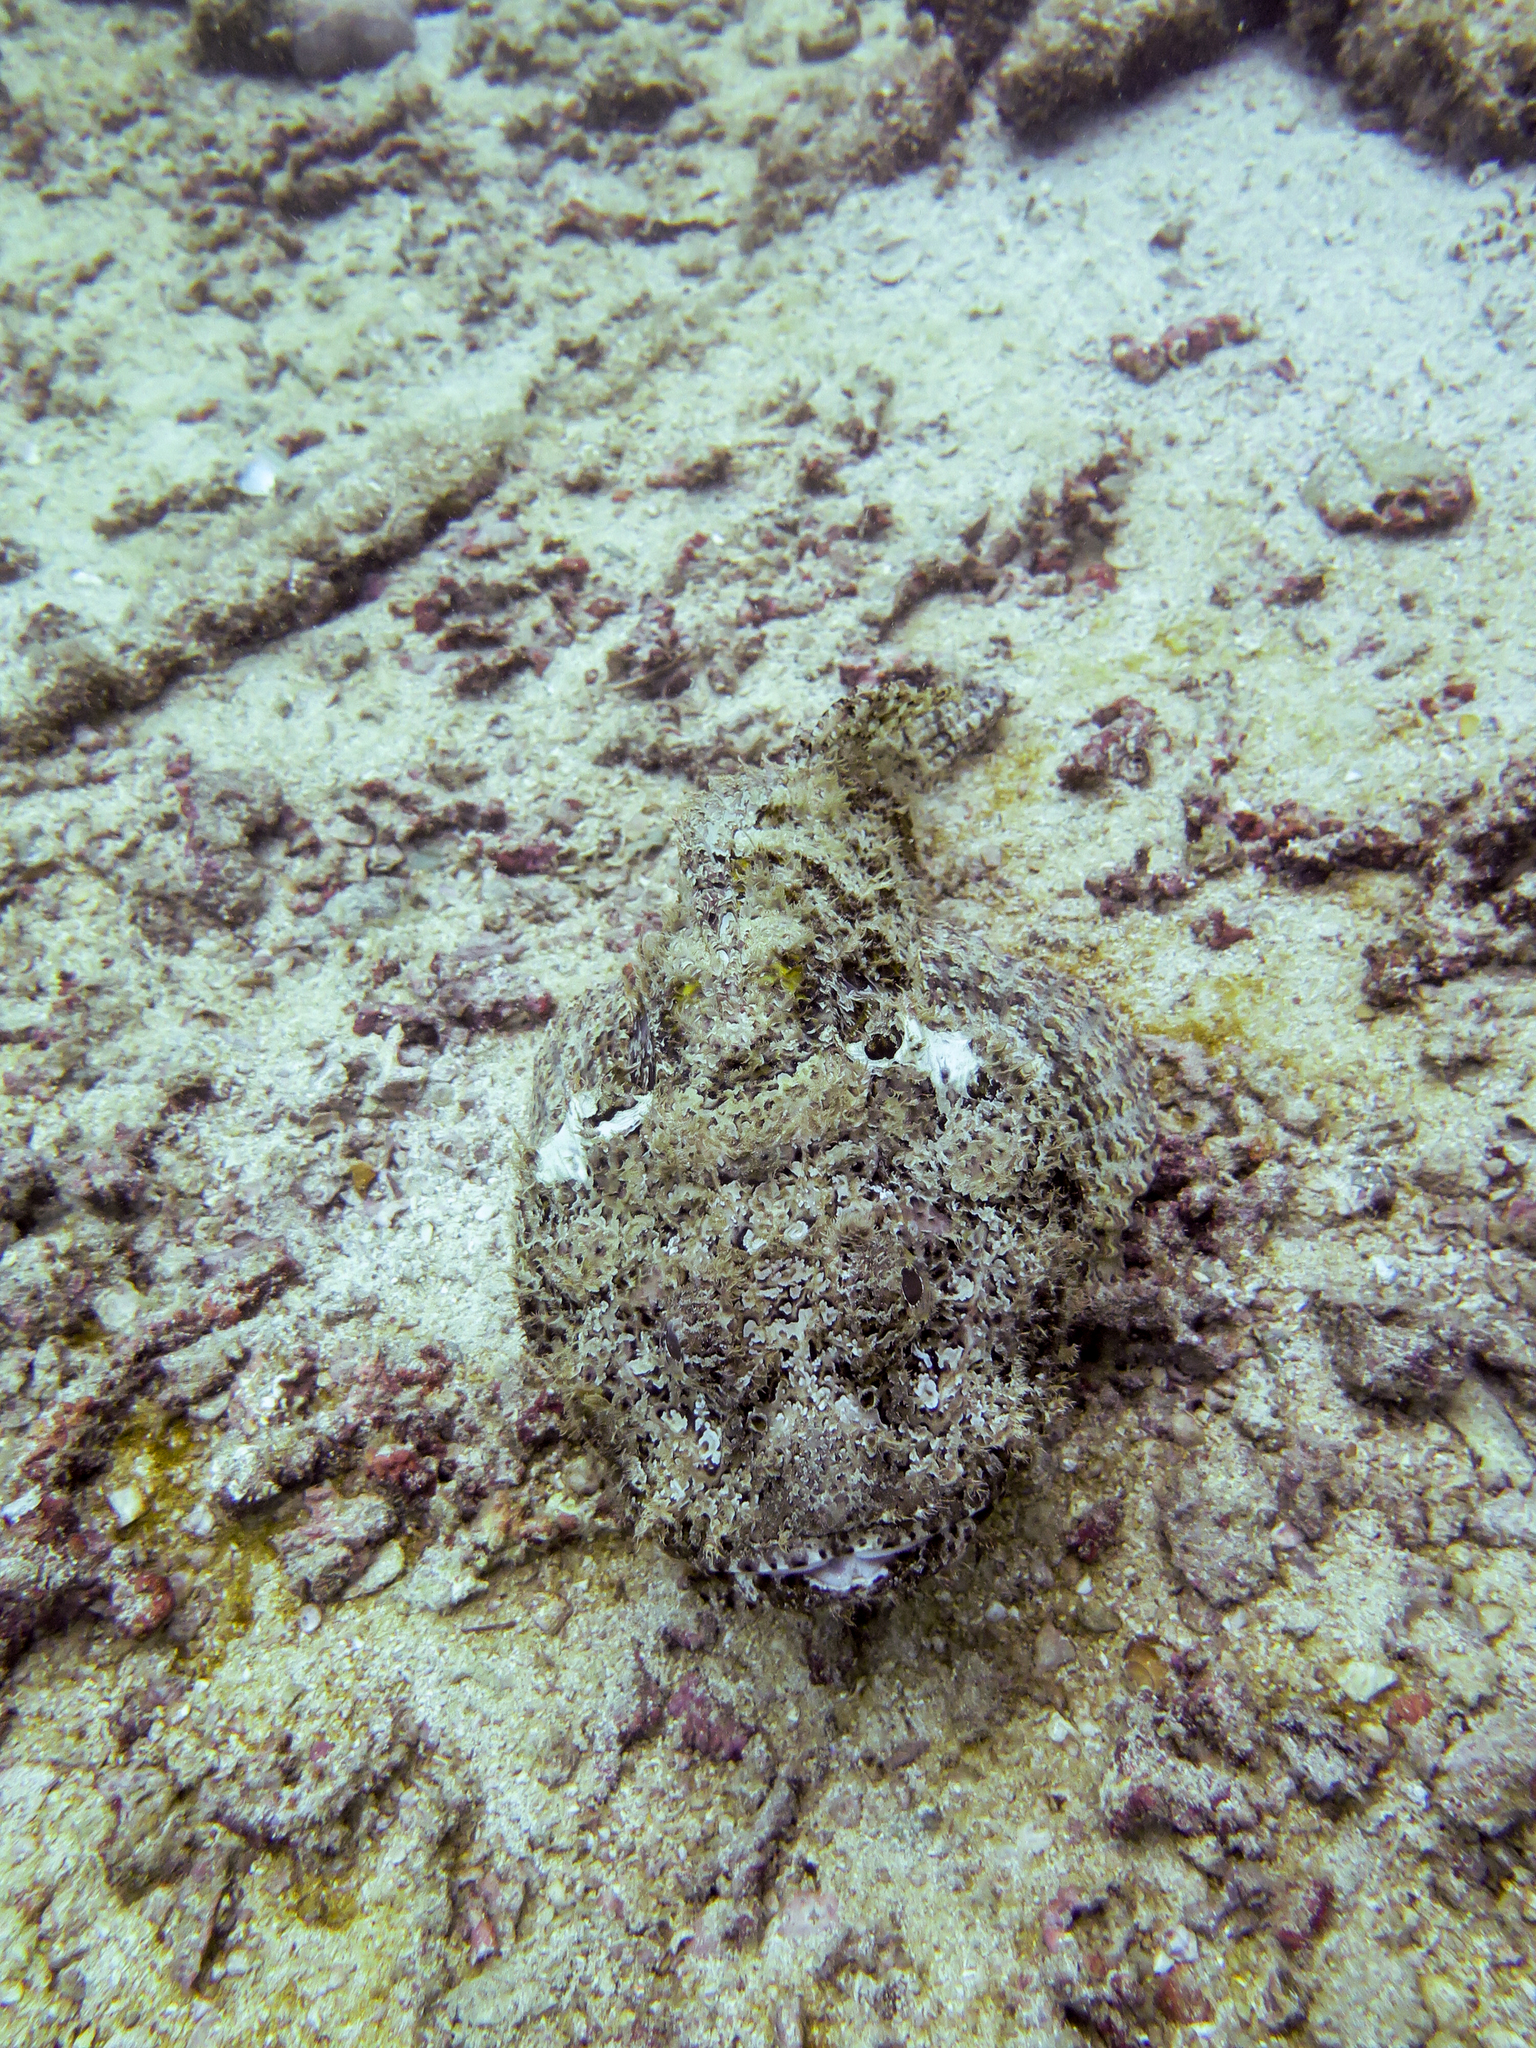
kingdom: Animalia
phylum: Chordata
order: Scorpaeniformes
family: Scorpaenidae
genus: Scorpaena
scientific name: Scorpaena mystes
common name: Pacific spotted scorpionfish
